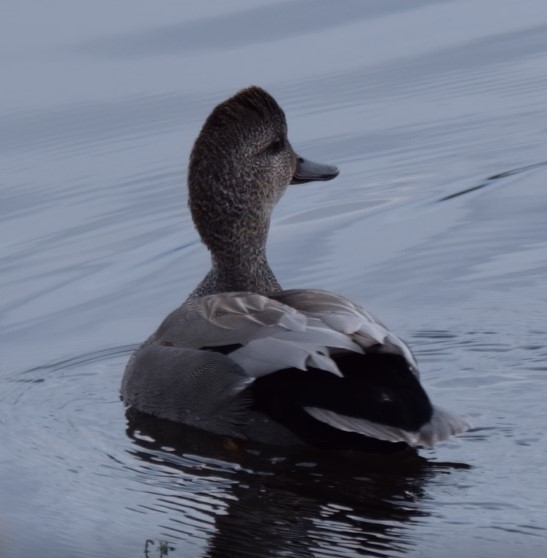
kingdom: Animalia
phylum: Chordata
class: Aves
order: Anseriformes
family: Anatidae
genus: Mareca
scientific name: Mareca strepera
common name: Gadwall
